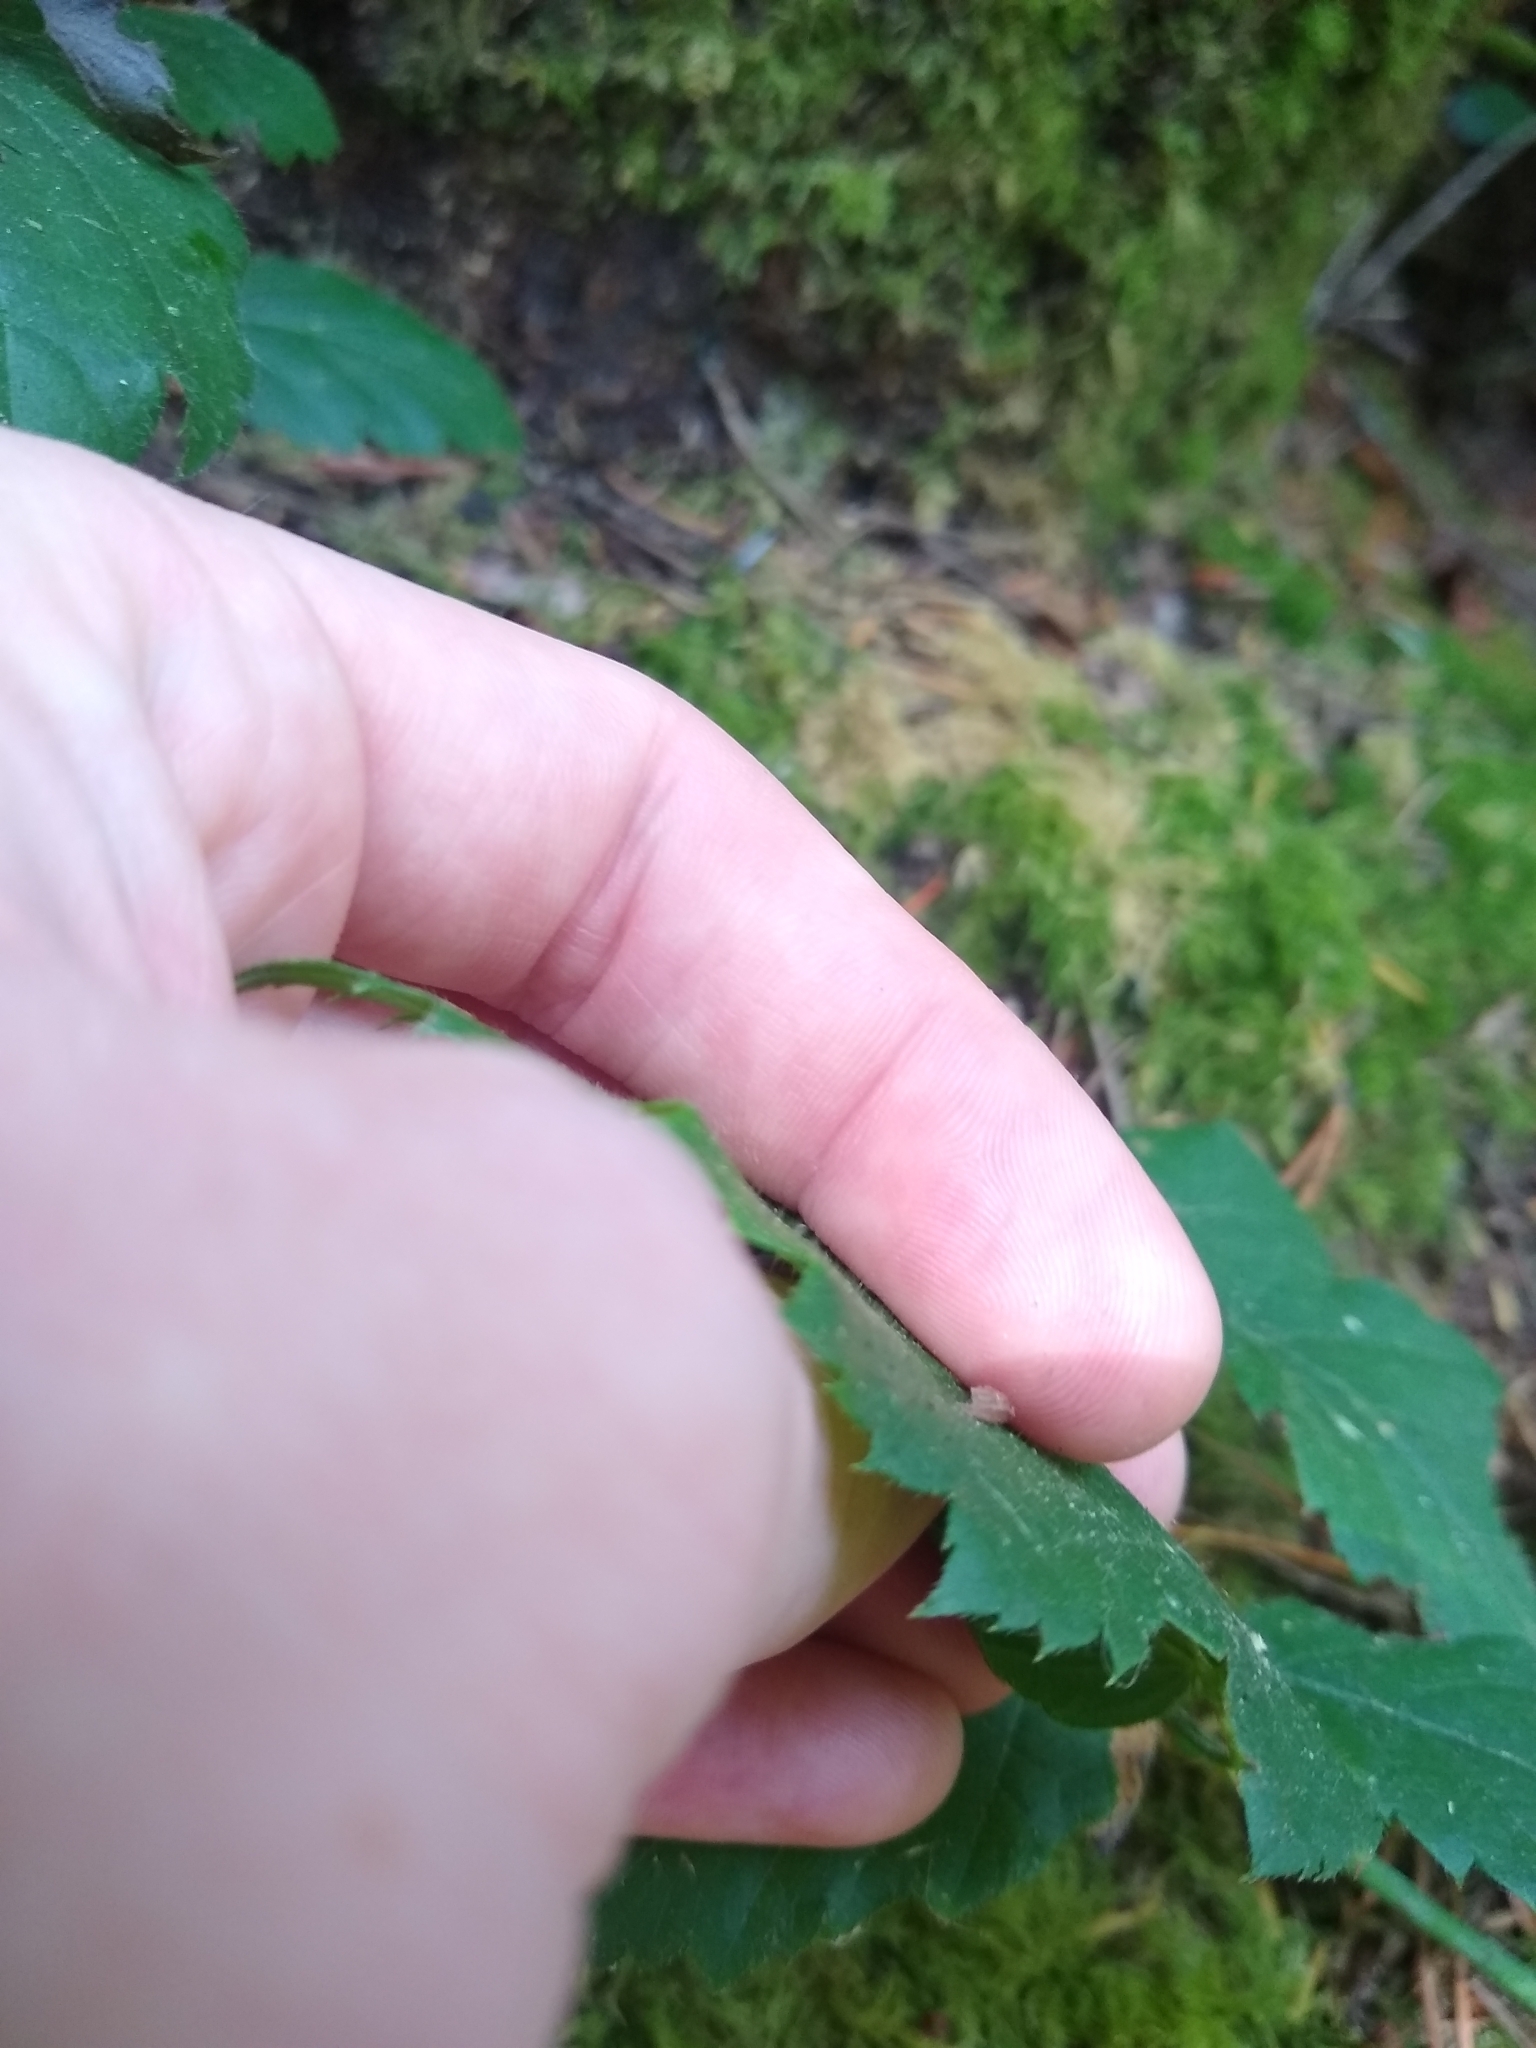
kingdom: Plantae
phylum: Tracheophyta
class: Magnoliopsida
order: Rosales
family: Rosaceae
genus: Rubus
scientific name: Rubus ursinus
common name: Pacific blackberry
